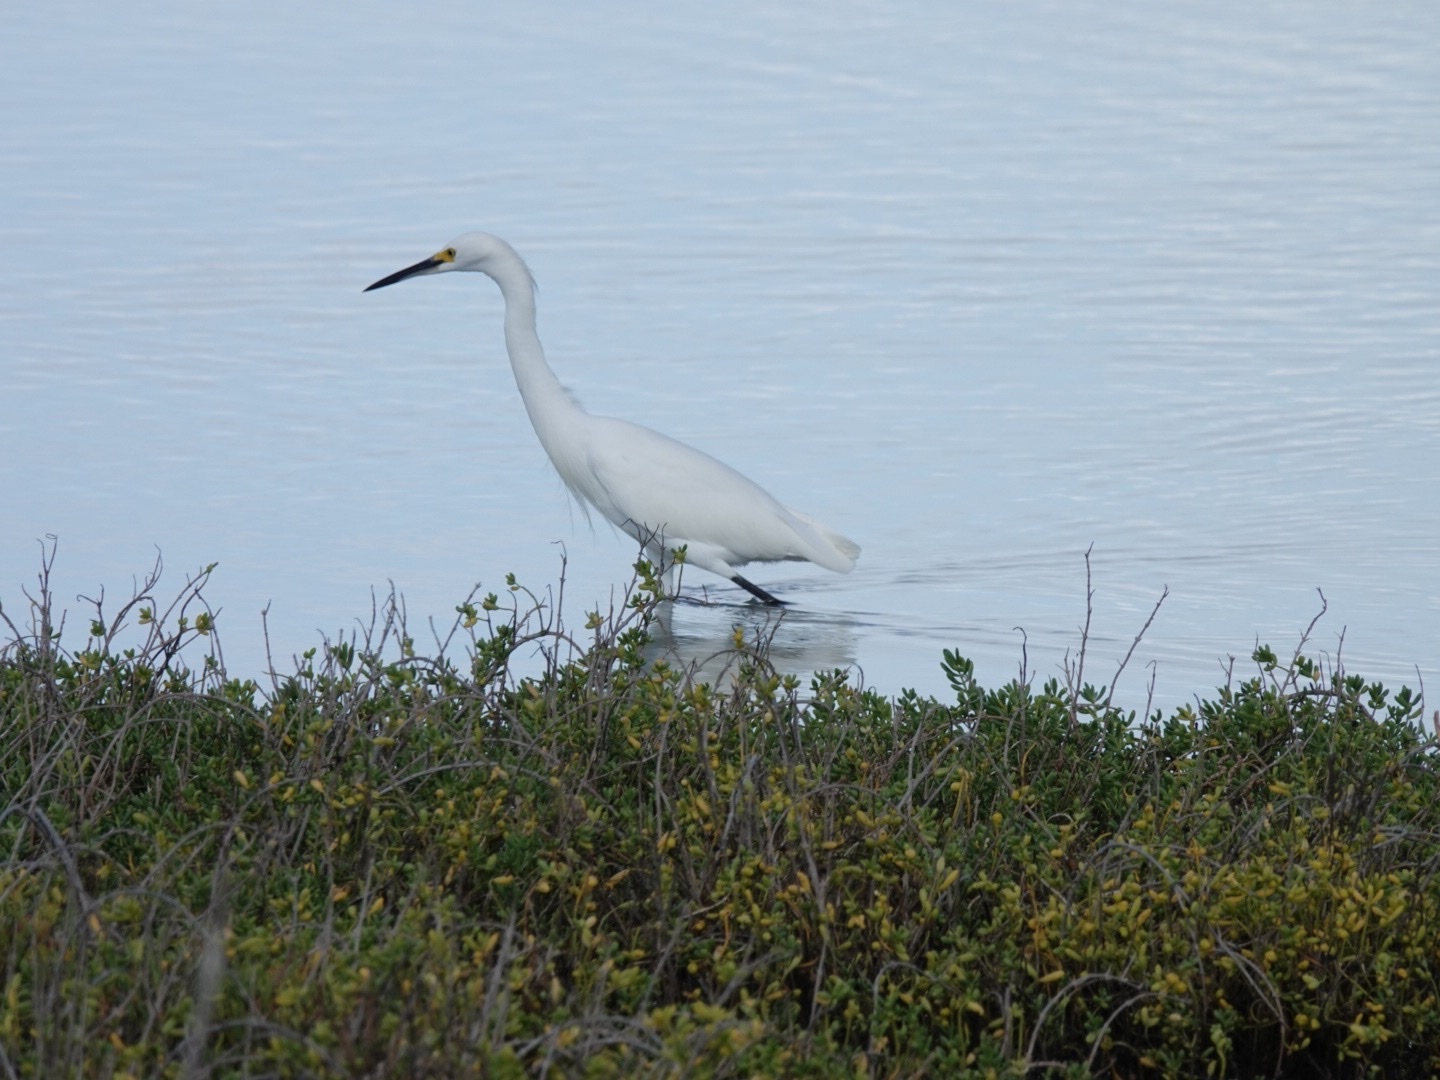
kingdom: Animalia
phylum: Chordata
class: Aves
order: Pelecaniformes
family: Ardeidae
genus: Egretta
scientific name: Egretta thula
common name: Snowy egret
